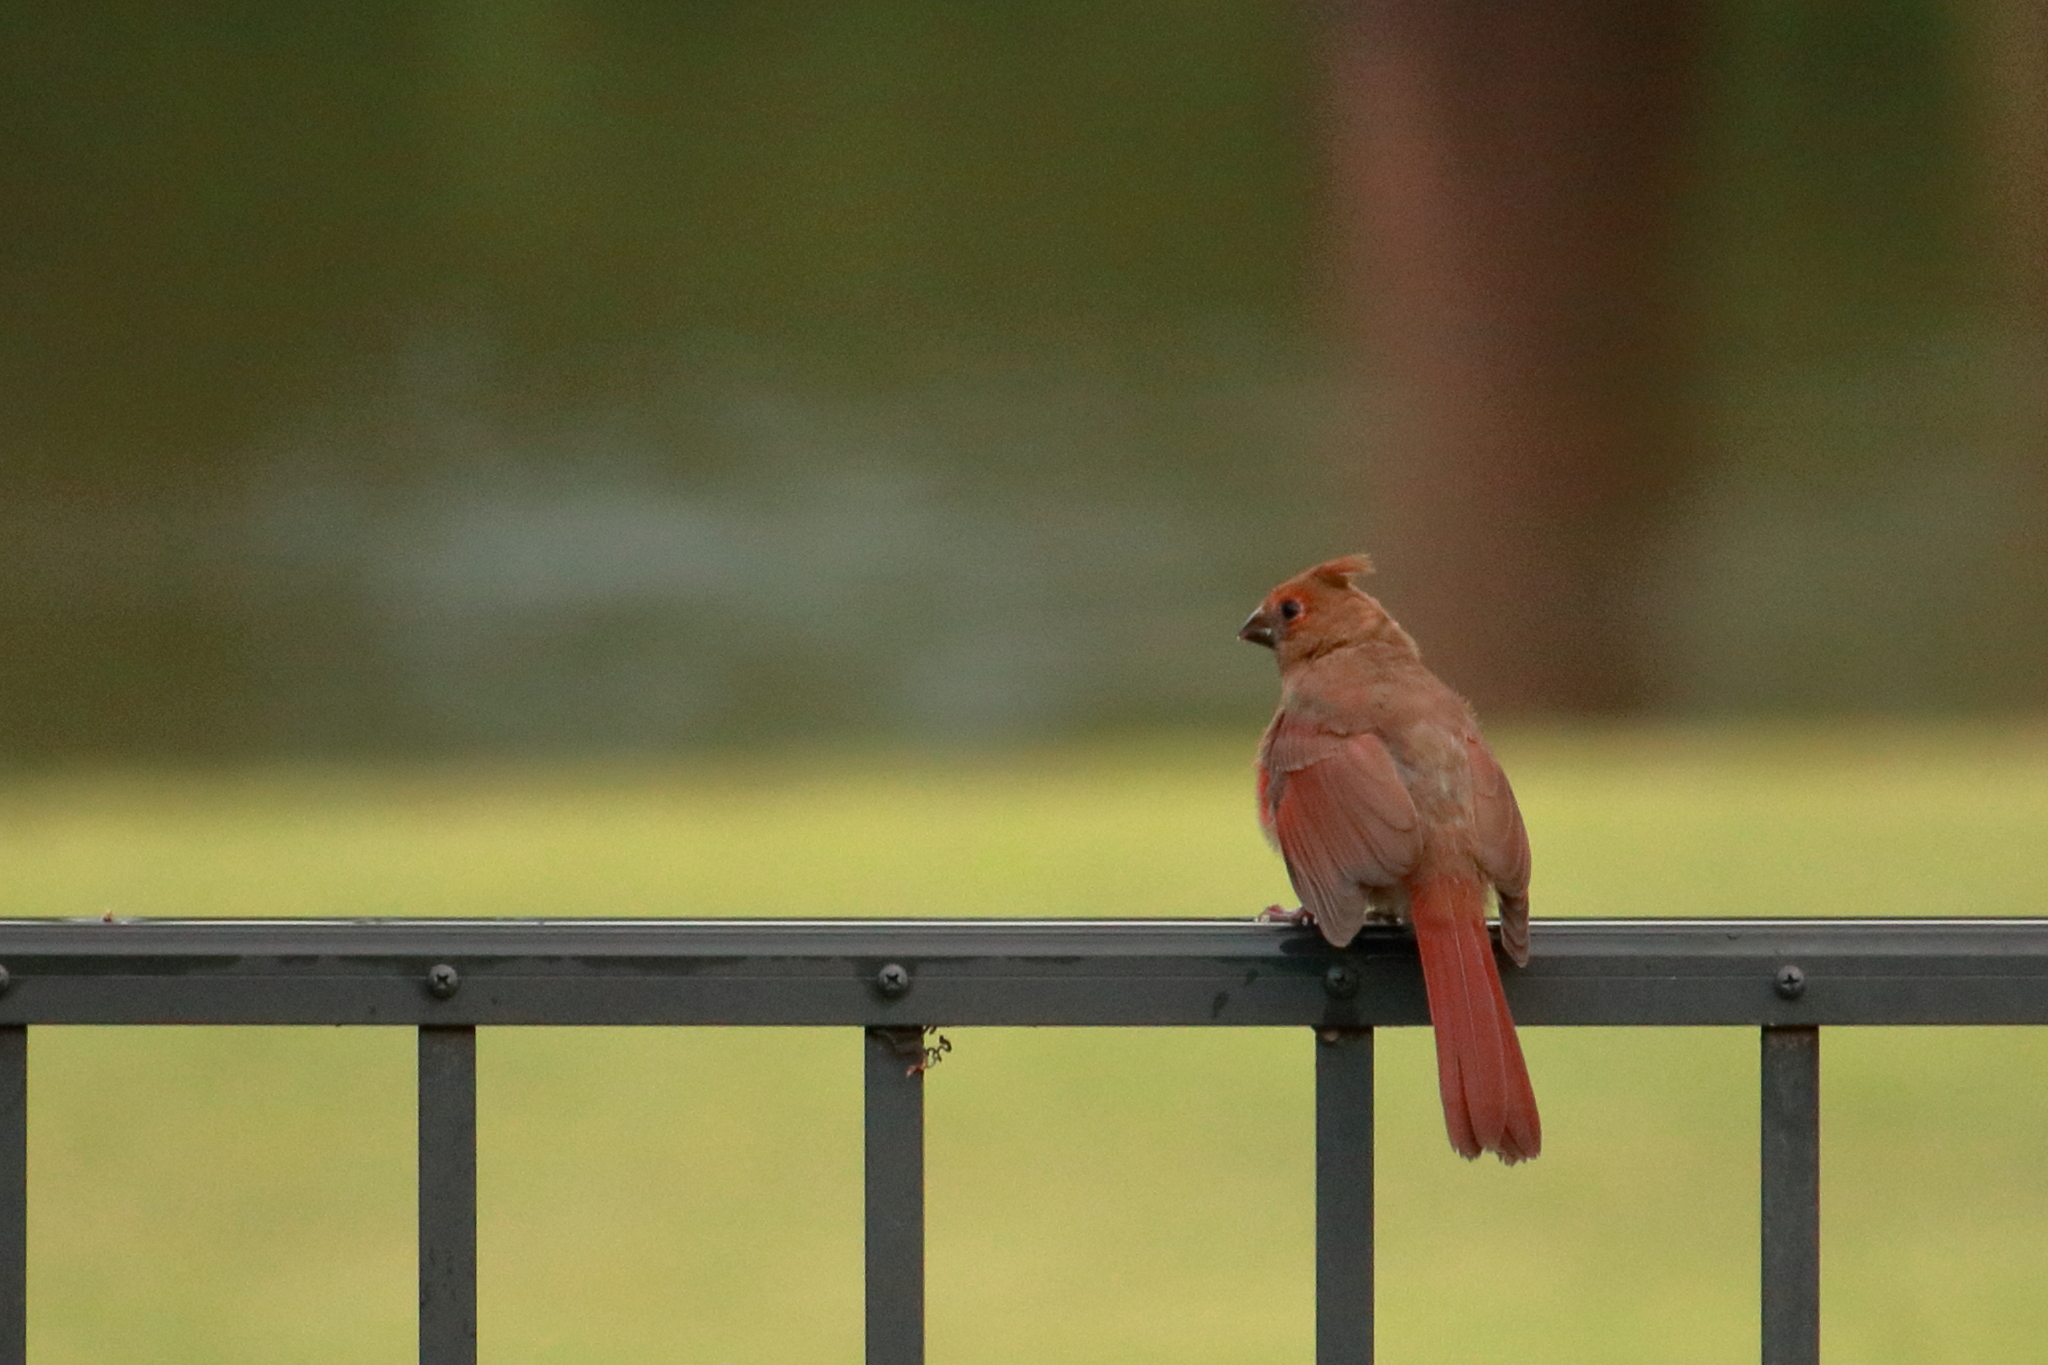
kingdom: Animalia
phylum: Chordata
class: Aves
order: Passeriformes
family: Cardinalidae
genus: Cardinalis
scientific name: Cardinalis cardinalis
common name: Northern cardinal
